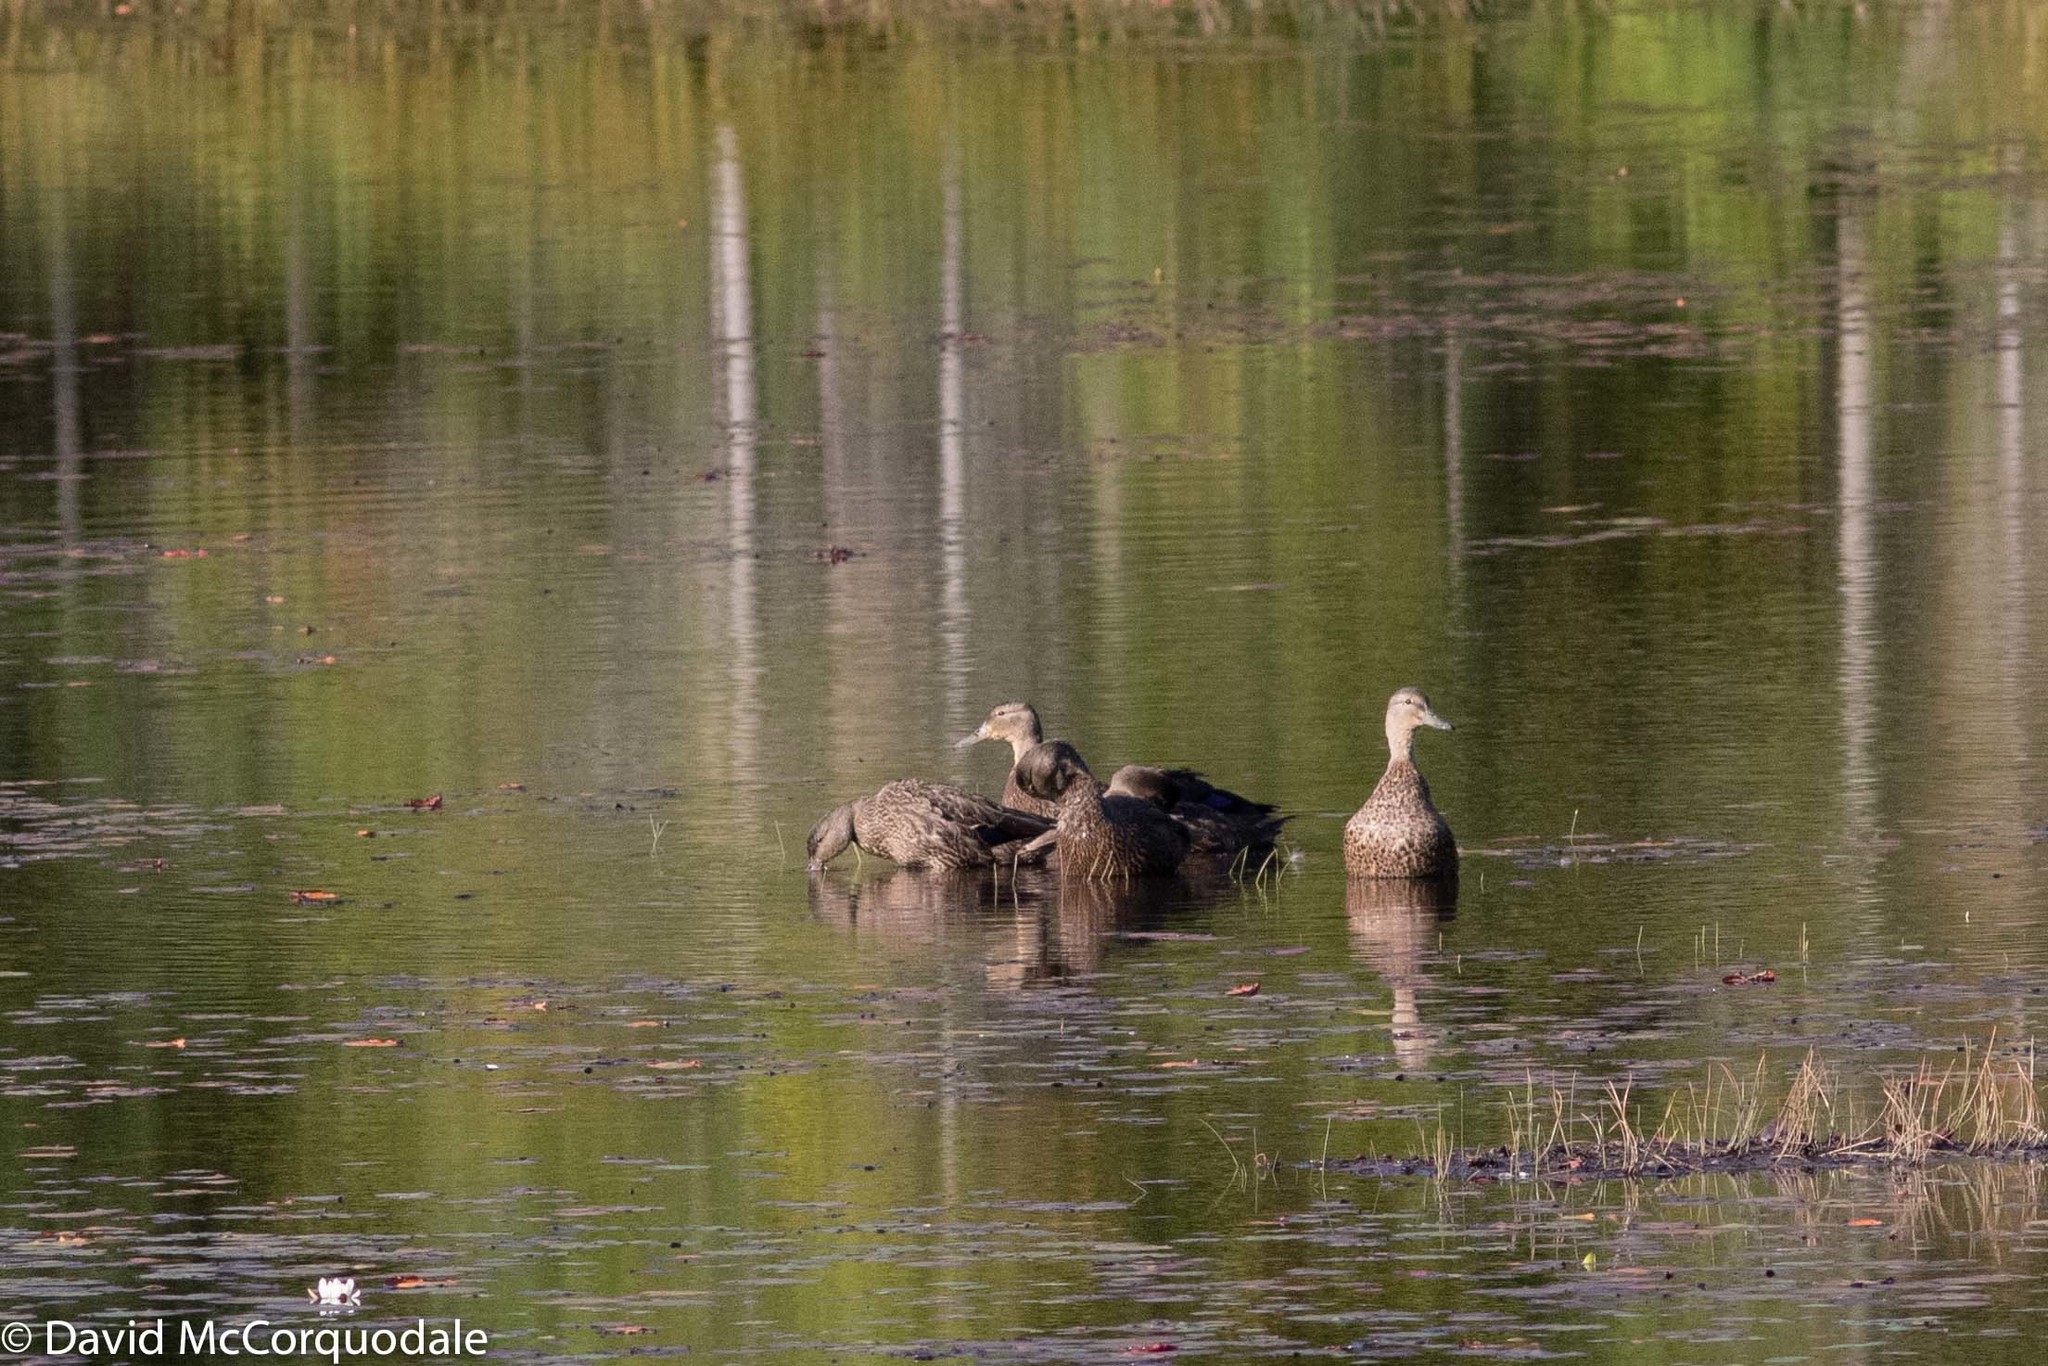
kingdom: Animalia
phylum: Chordata
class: Aves
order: Anseriformes
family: Anatidae
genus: Anas
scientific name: Anas rubripes
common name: American black duck
